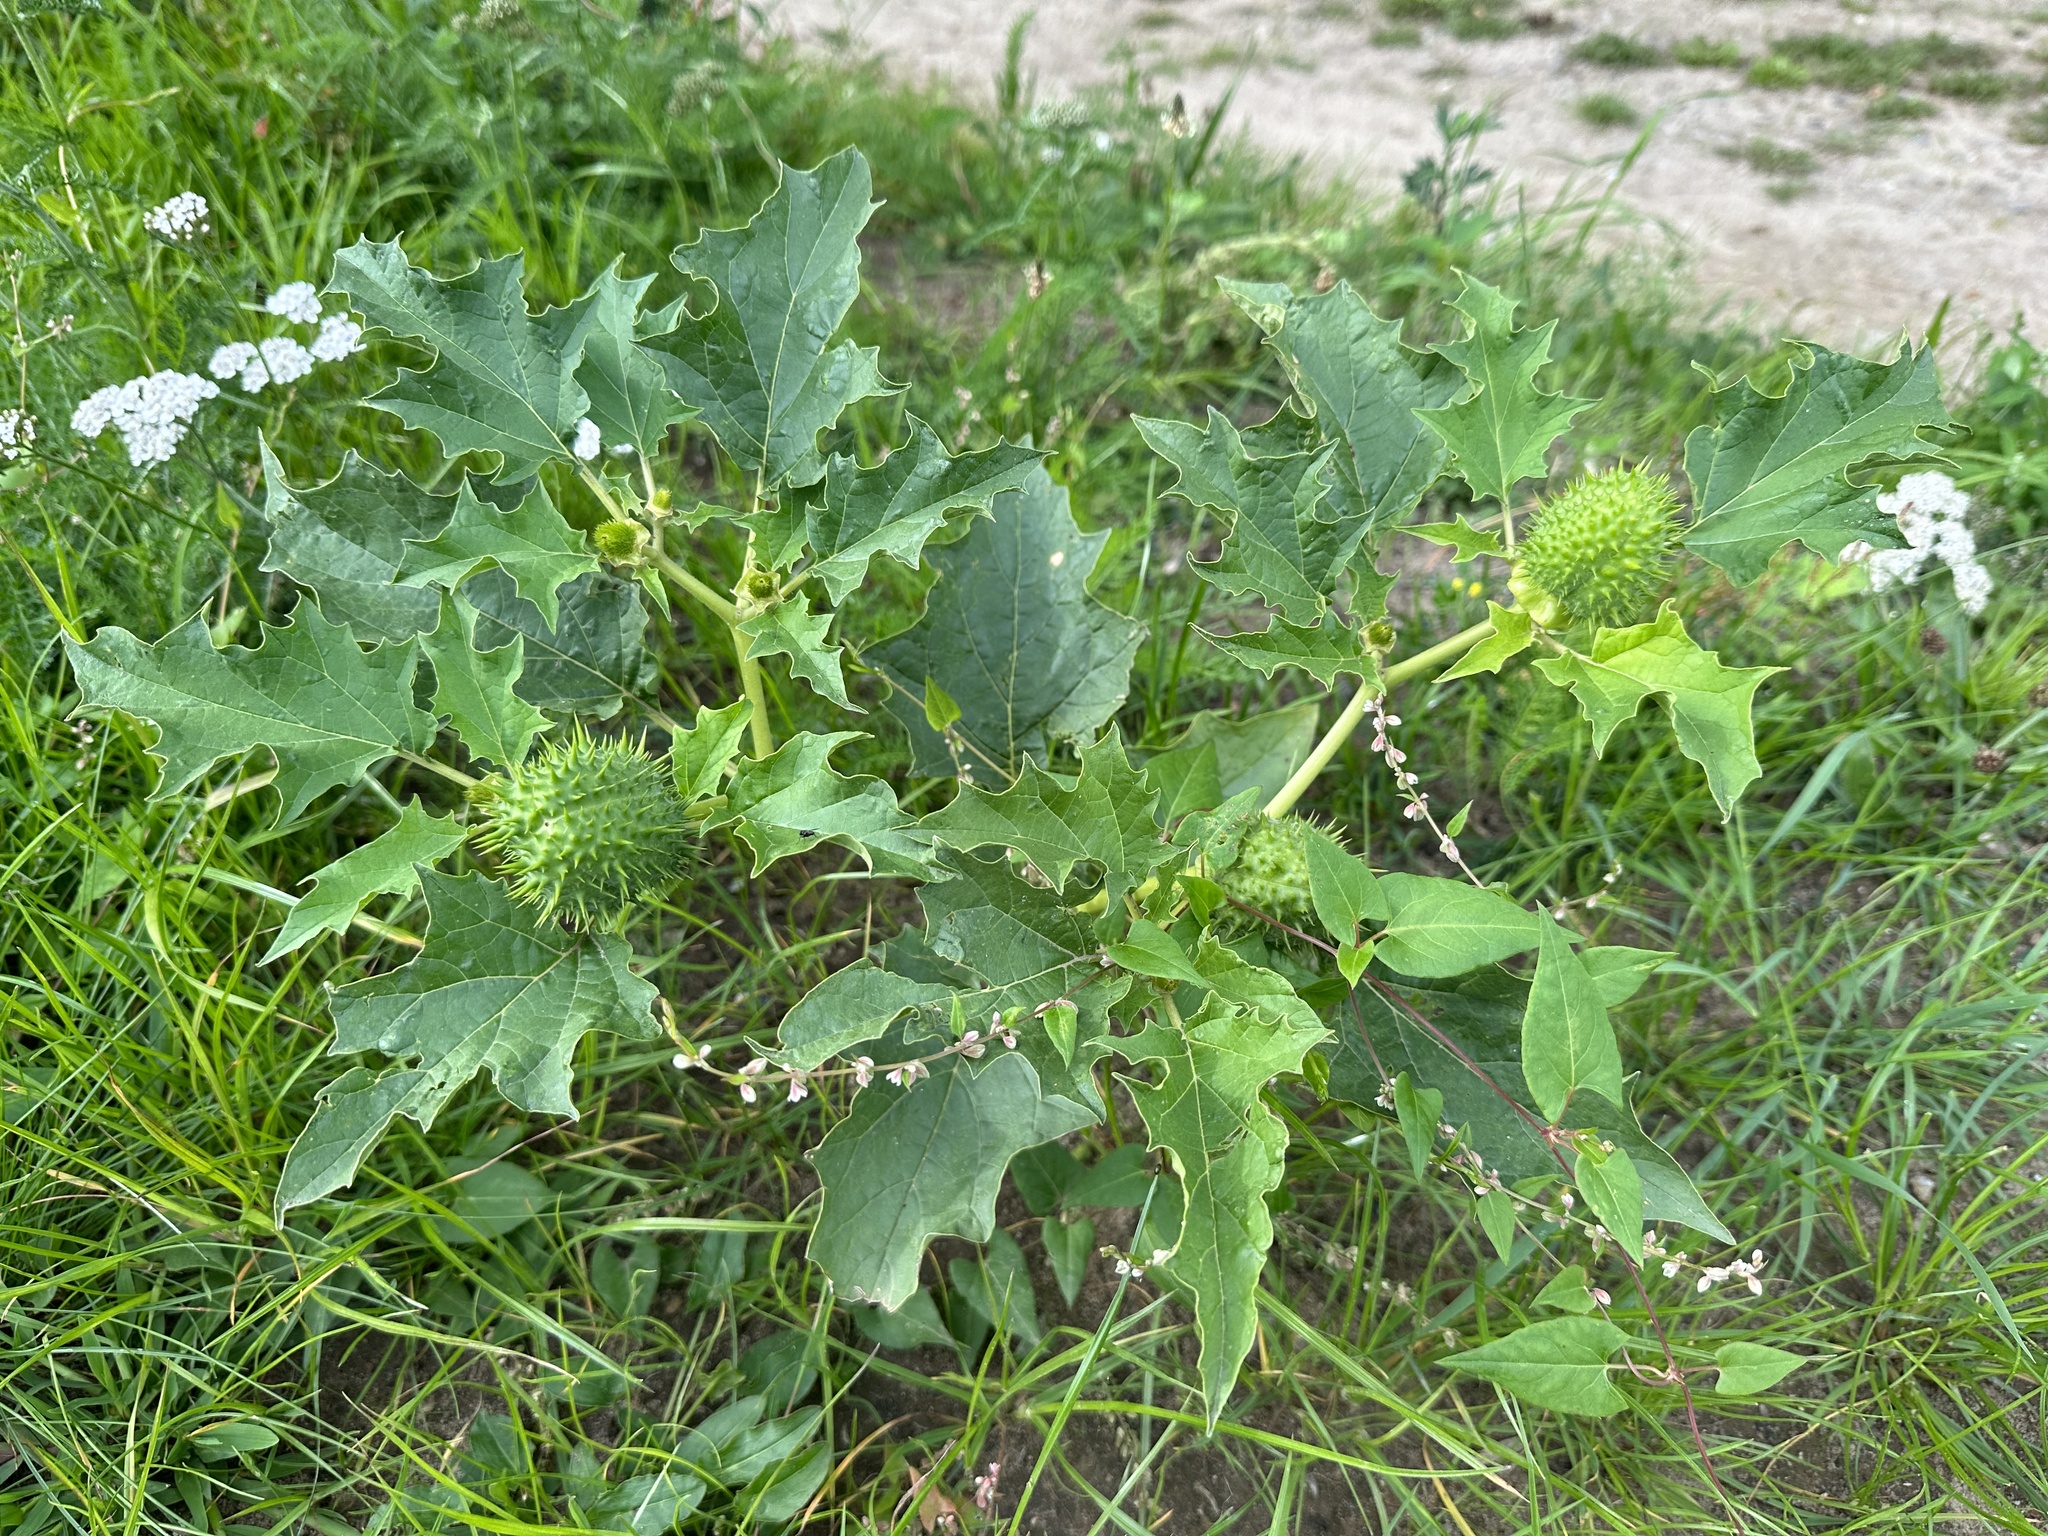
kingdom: Plantae
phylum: Tracheophyta
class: Magnoliopsida
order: Solanales
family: Solanaceae
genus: Datura
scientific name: Datura stramonium
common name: Thorn-apple
